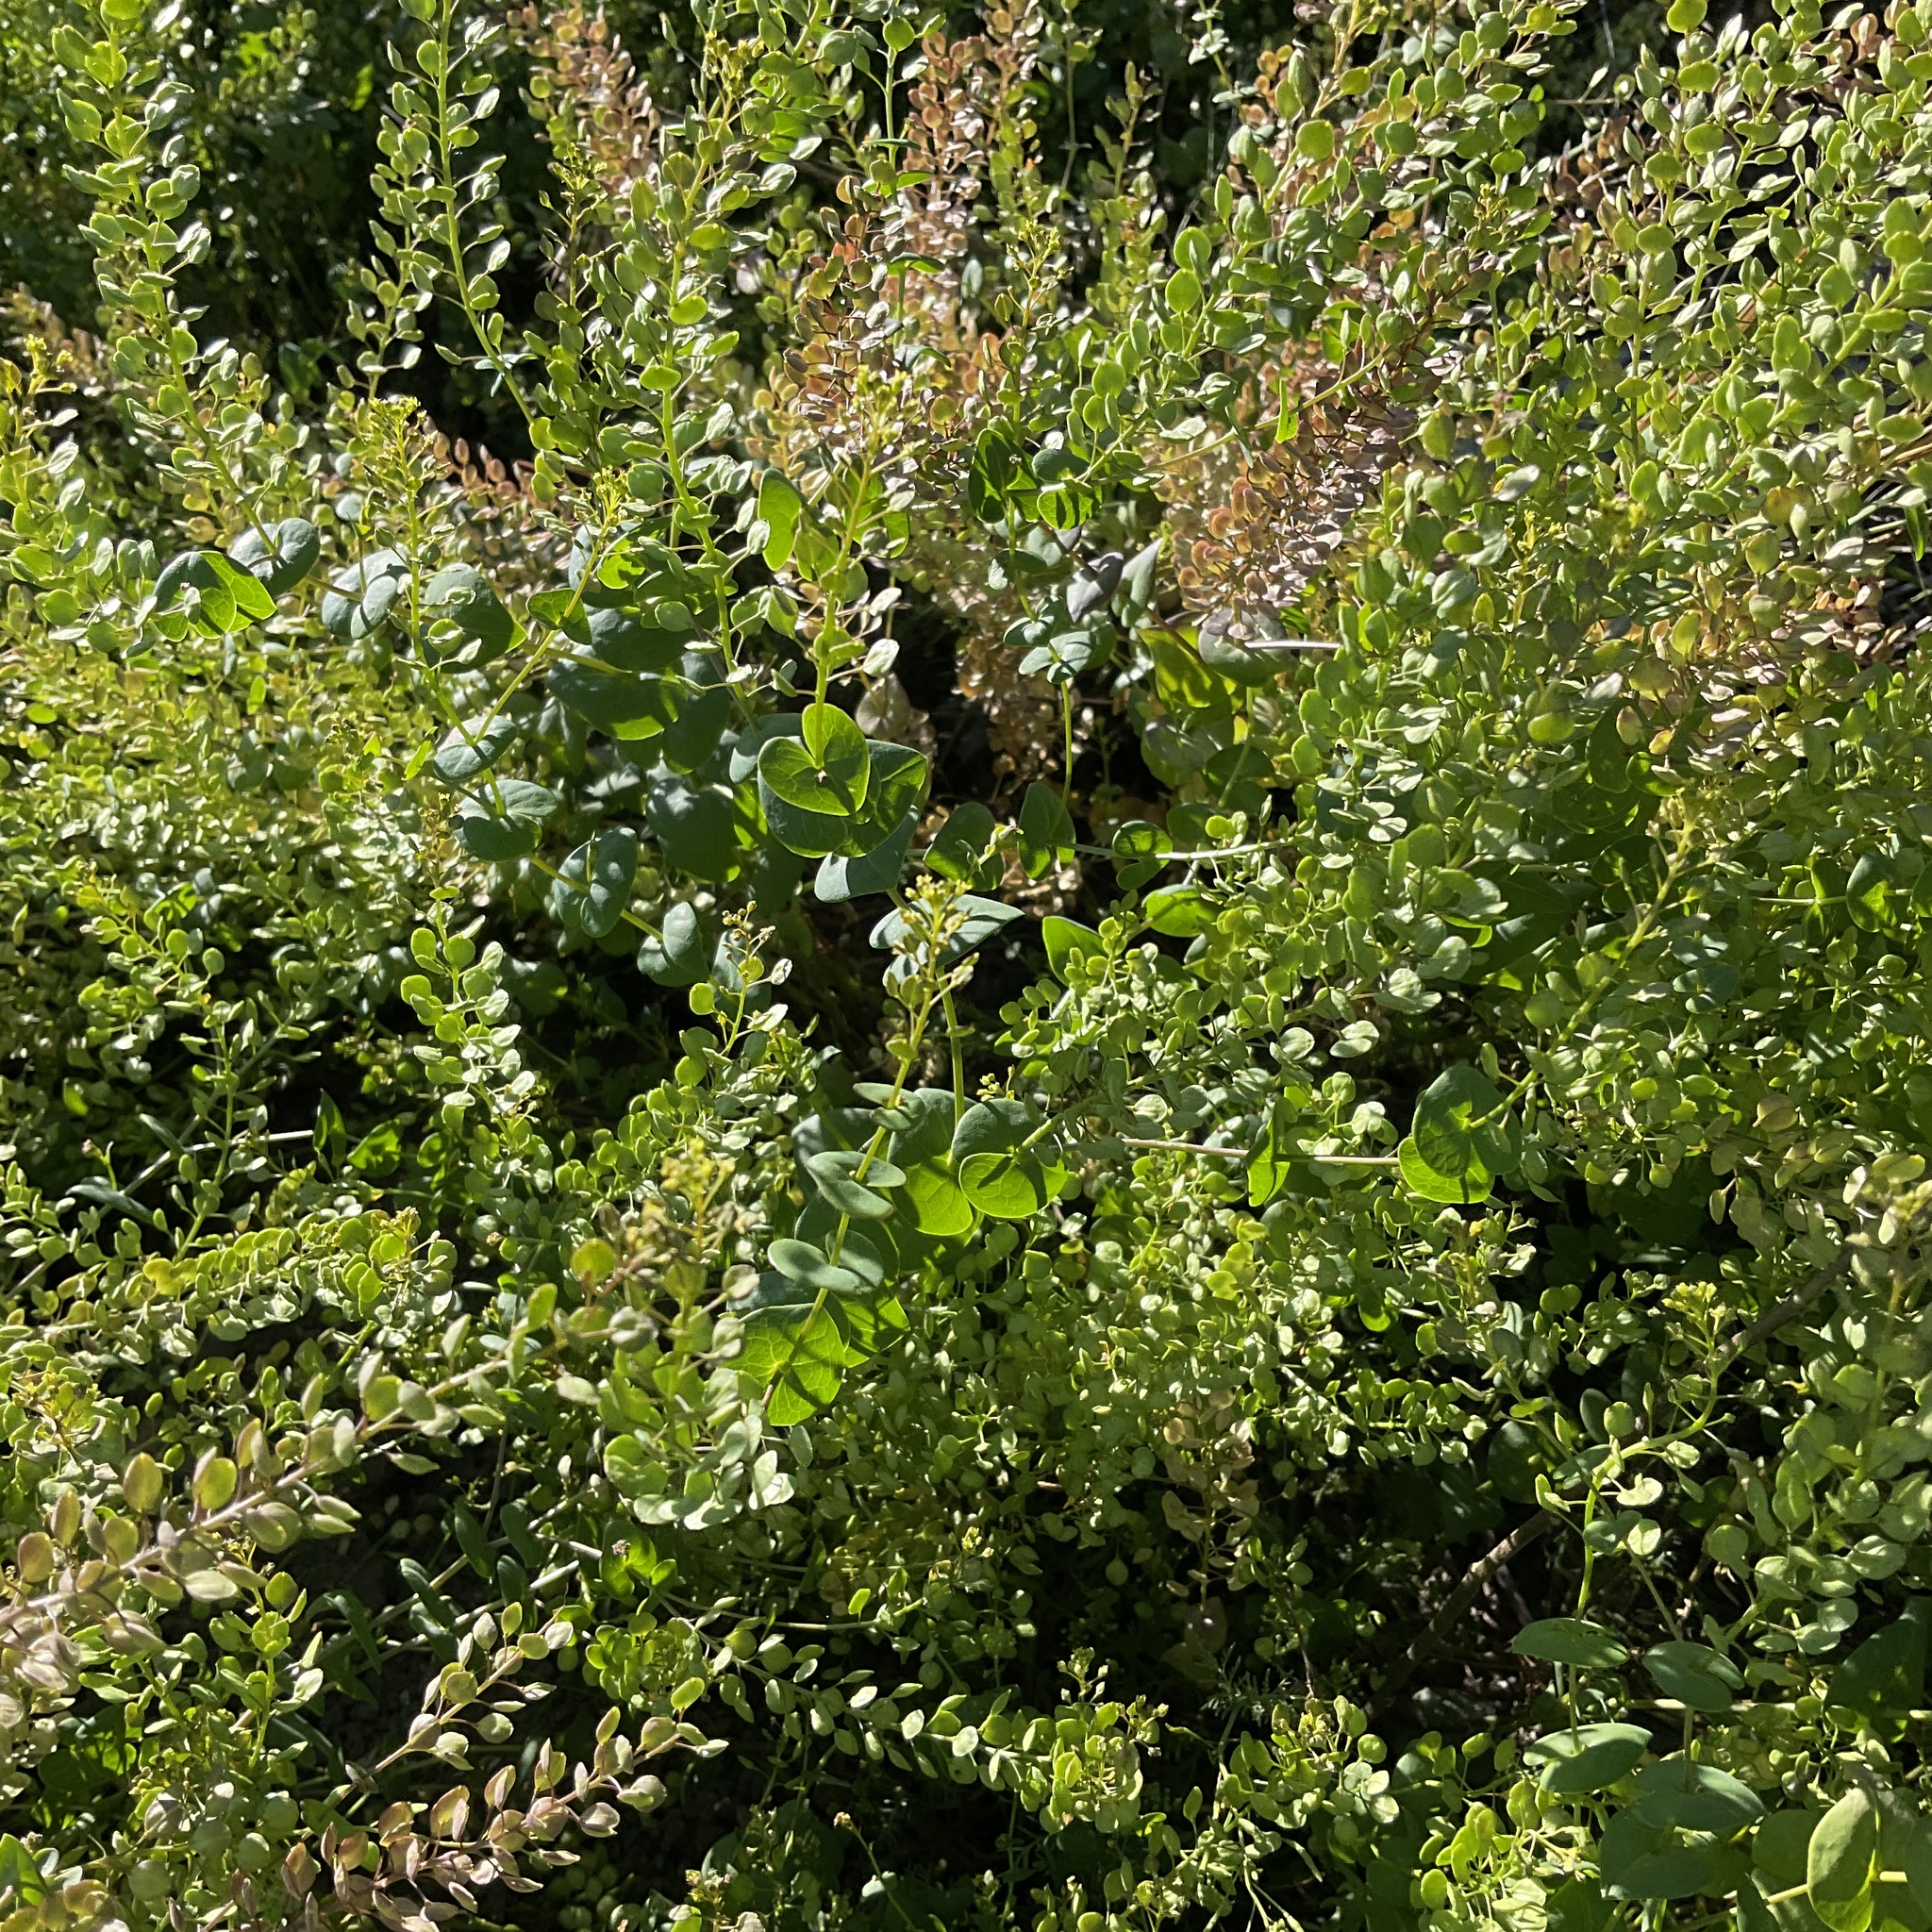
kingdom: Plantae
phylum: Tracheophyta
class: Magnoliopsida
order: Brassicales
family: Brassicaceae
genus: Lepidium
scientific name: Lepidium perfoliatum
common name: Perfoliate pepperwort
